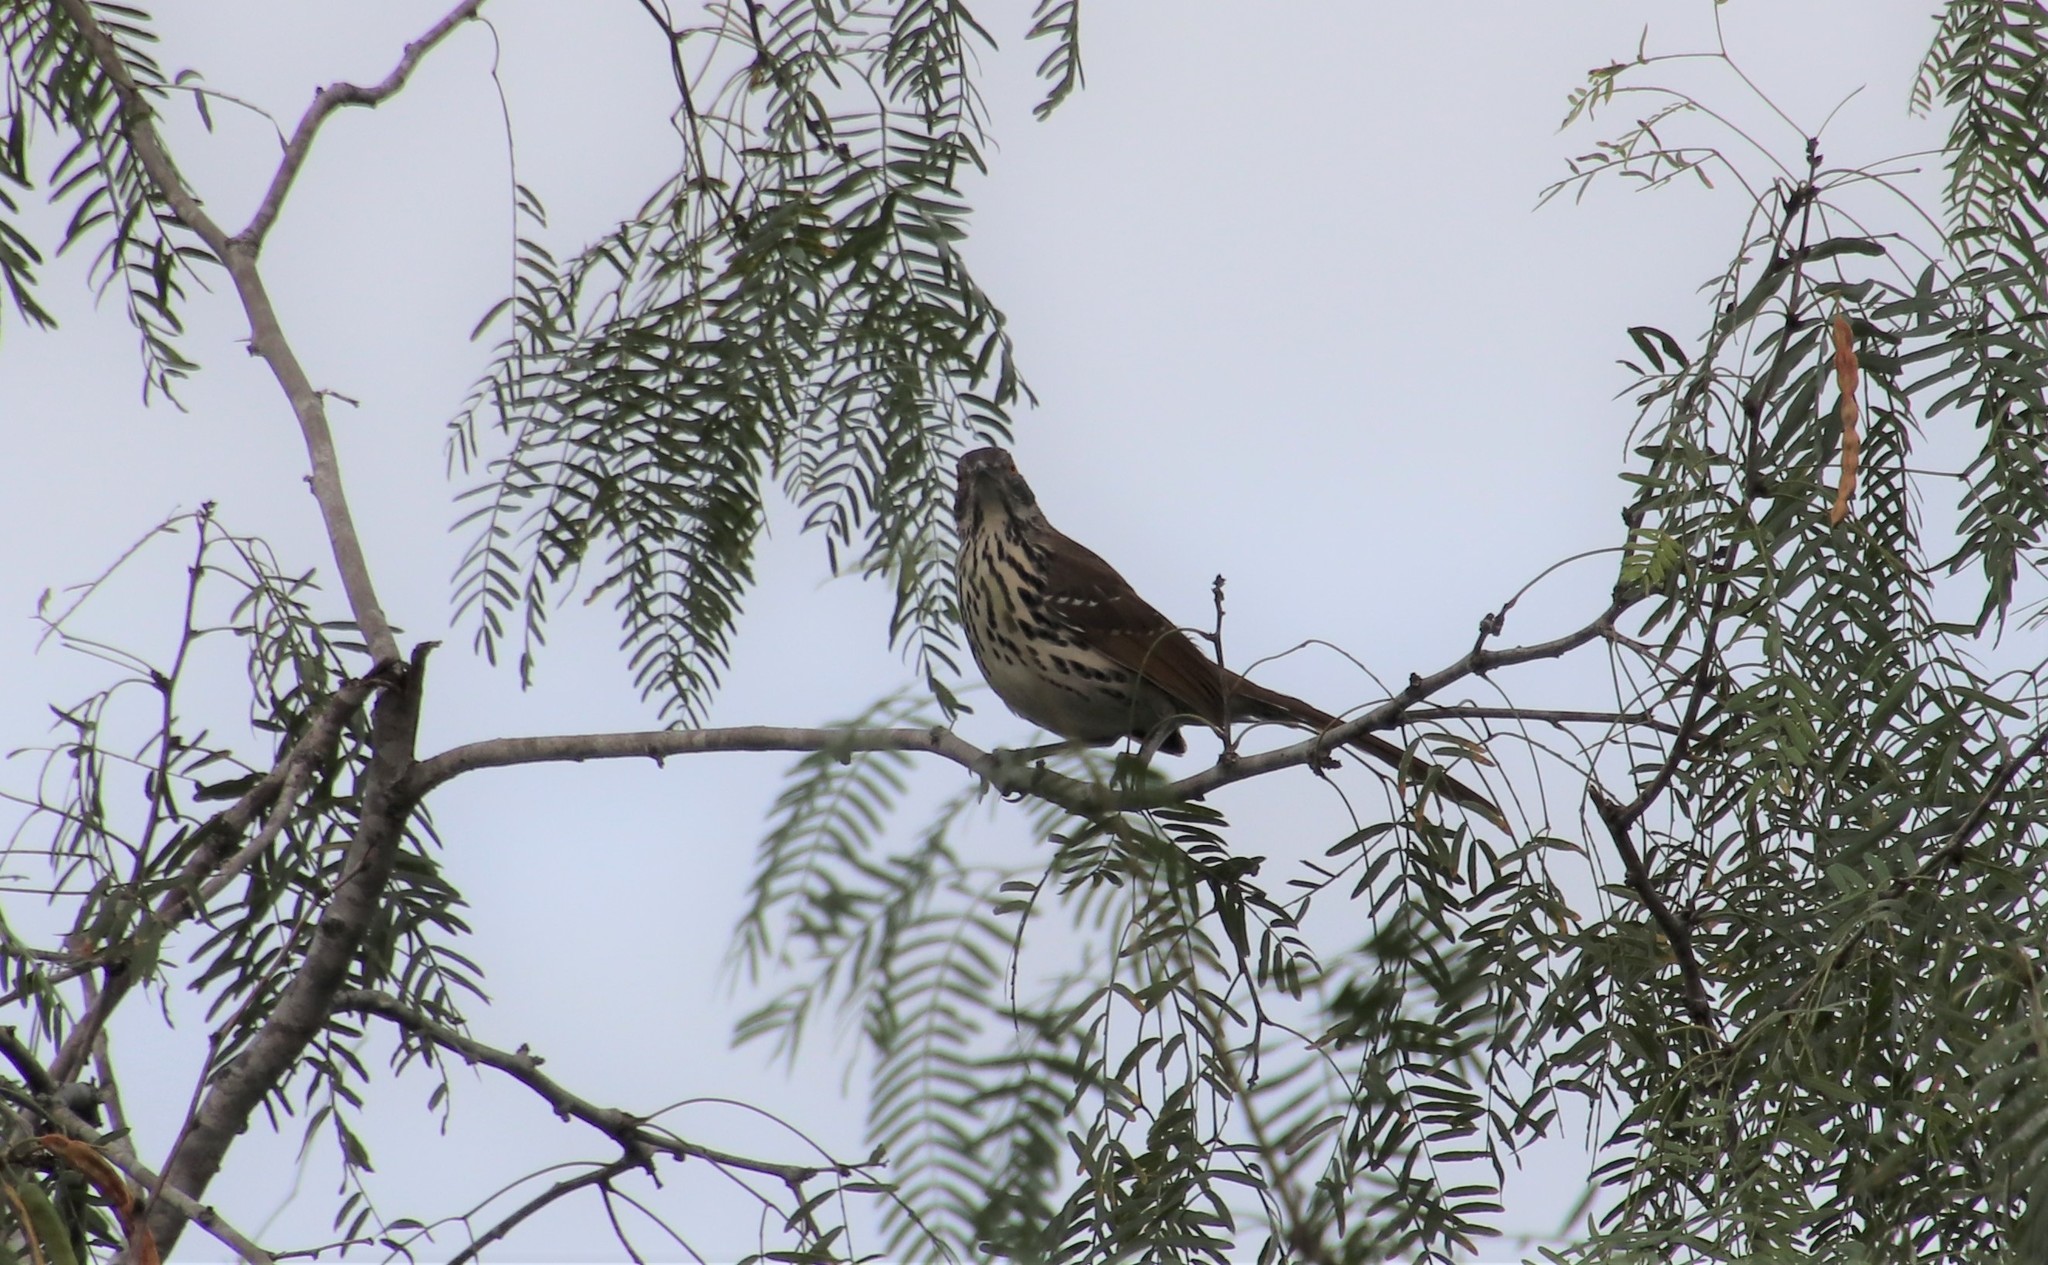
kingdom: Animalia
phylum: Chordata
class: Aves
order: Passeriformes
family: Mimidae
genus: Toxostoma
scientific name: Toxostoma longirostre
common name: Long-billed thrasher
